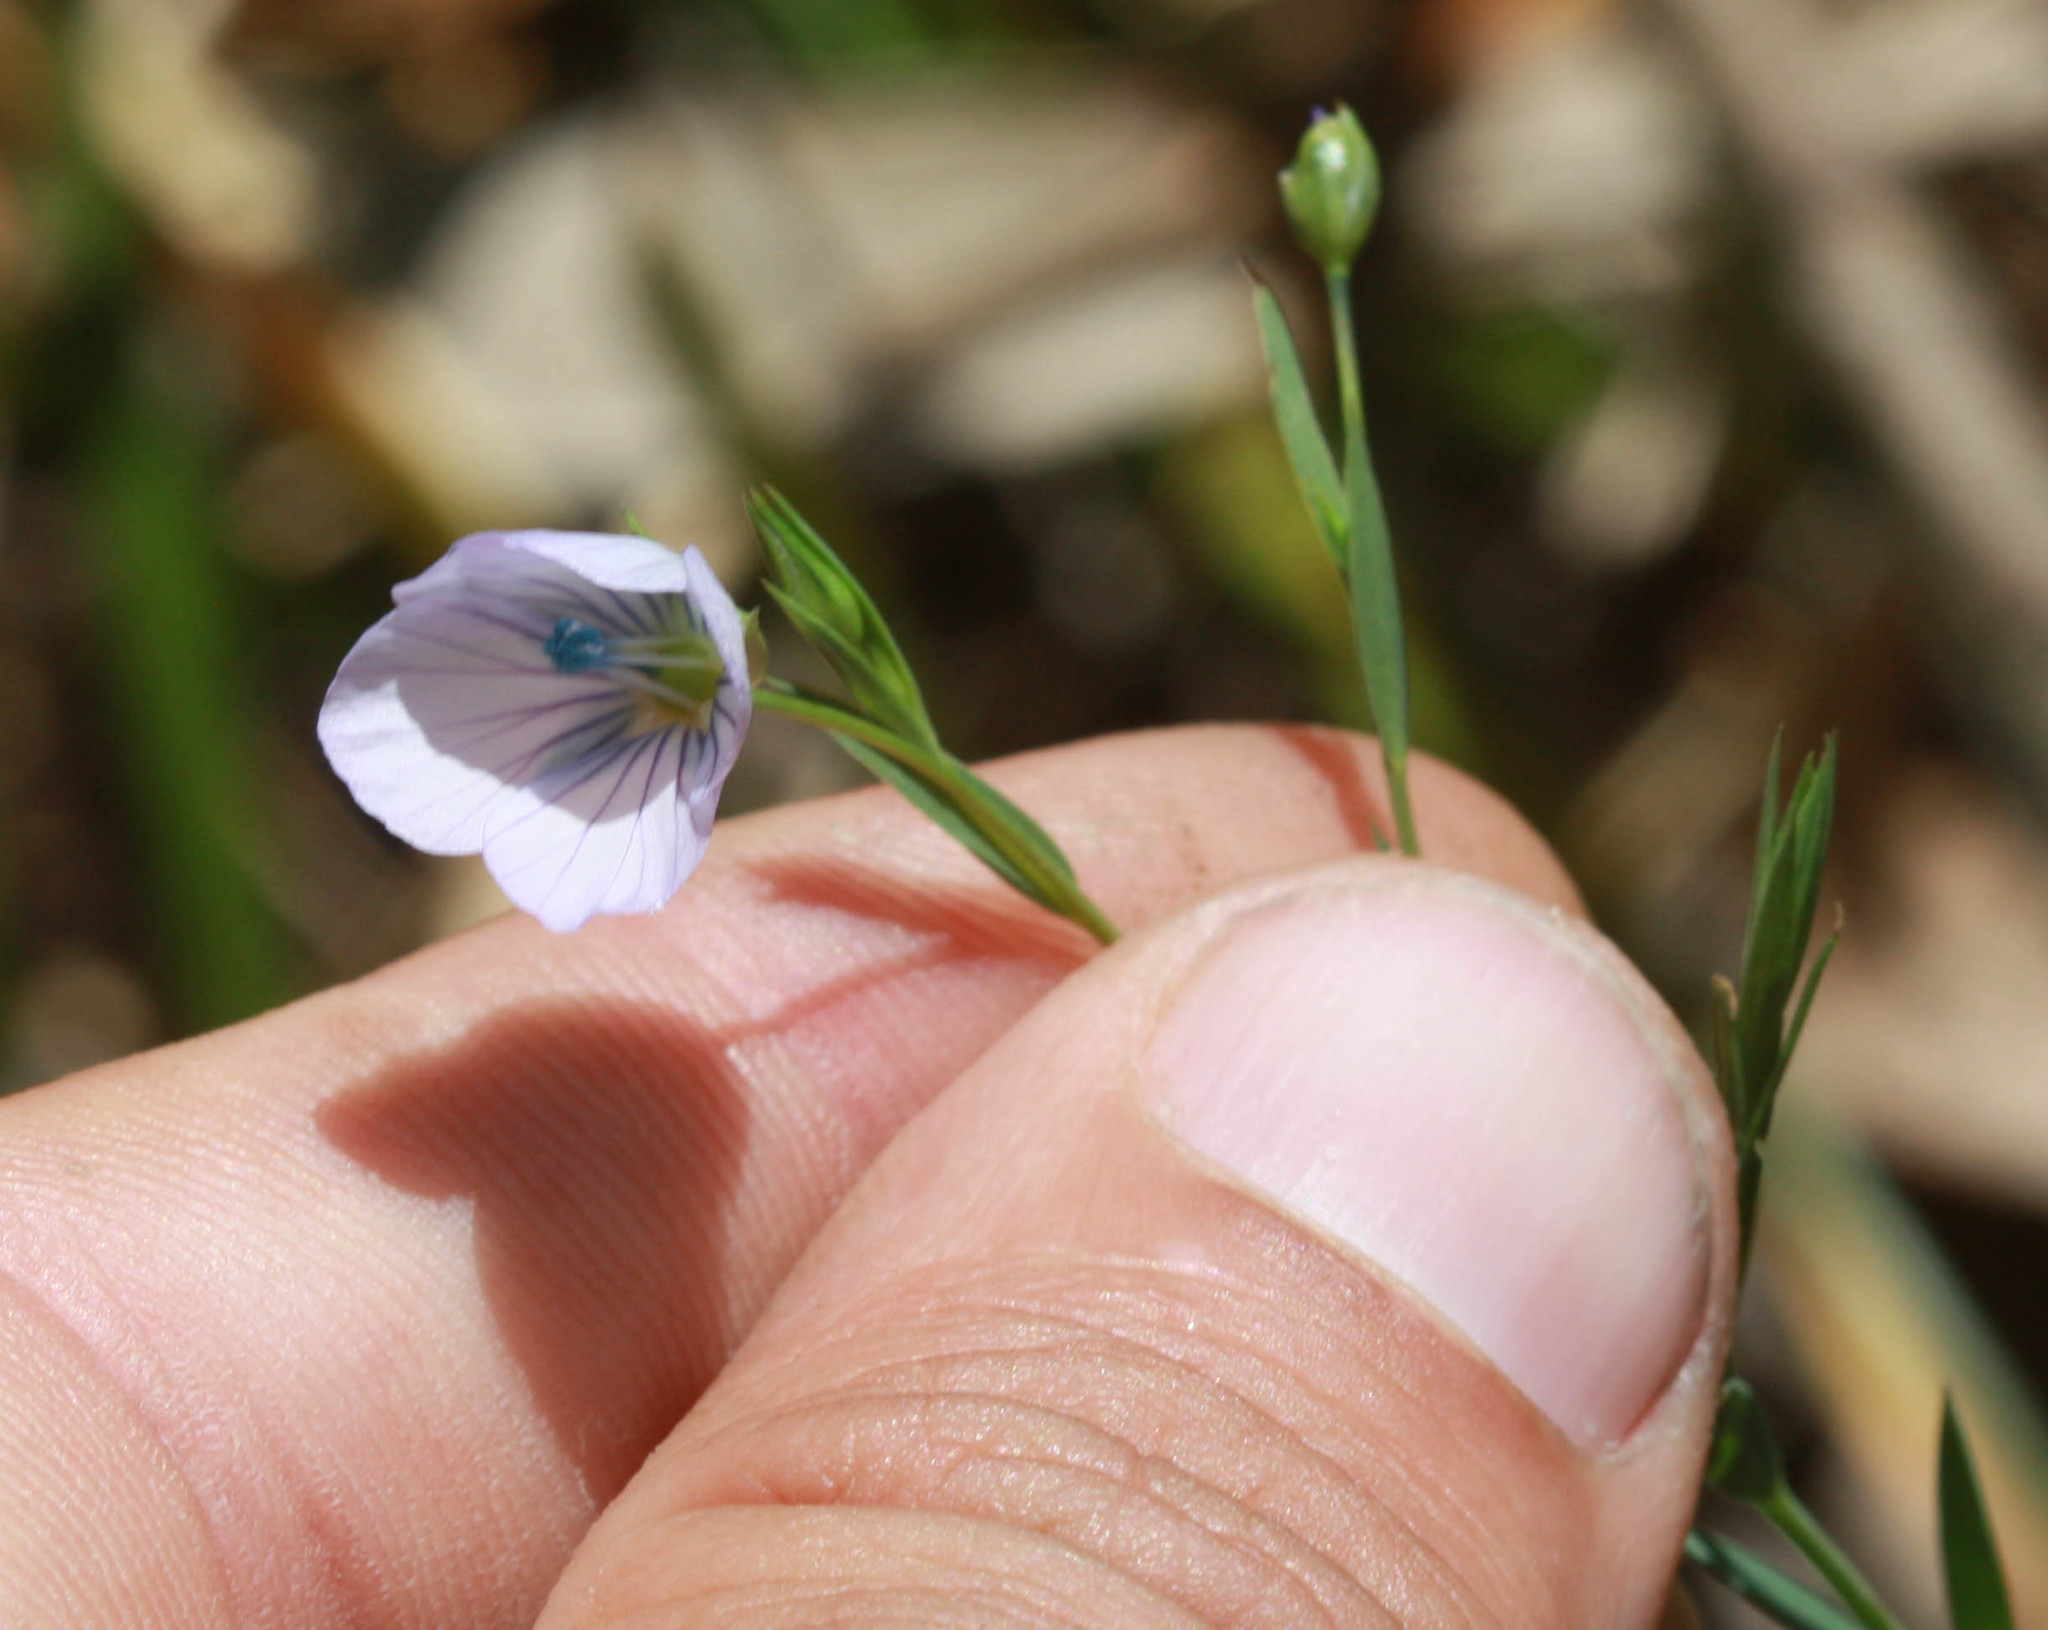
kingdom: Plantae
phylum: Tracheophyta
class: Magnoliopsida
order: Malpighiales
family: Linaceae
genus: Linum
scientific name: Linum bienne
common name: Pale flax
